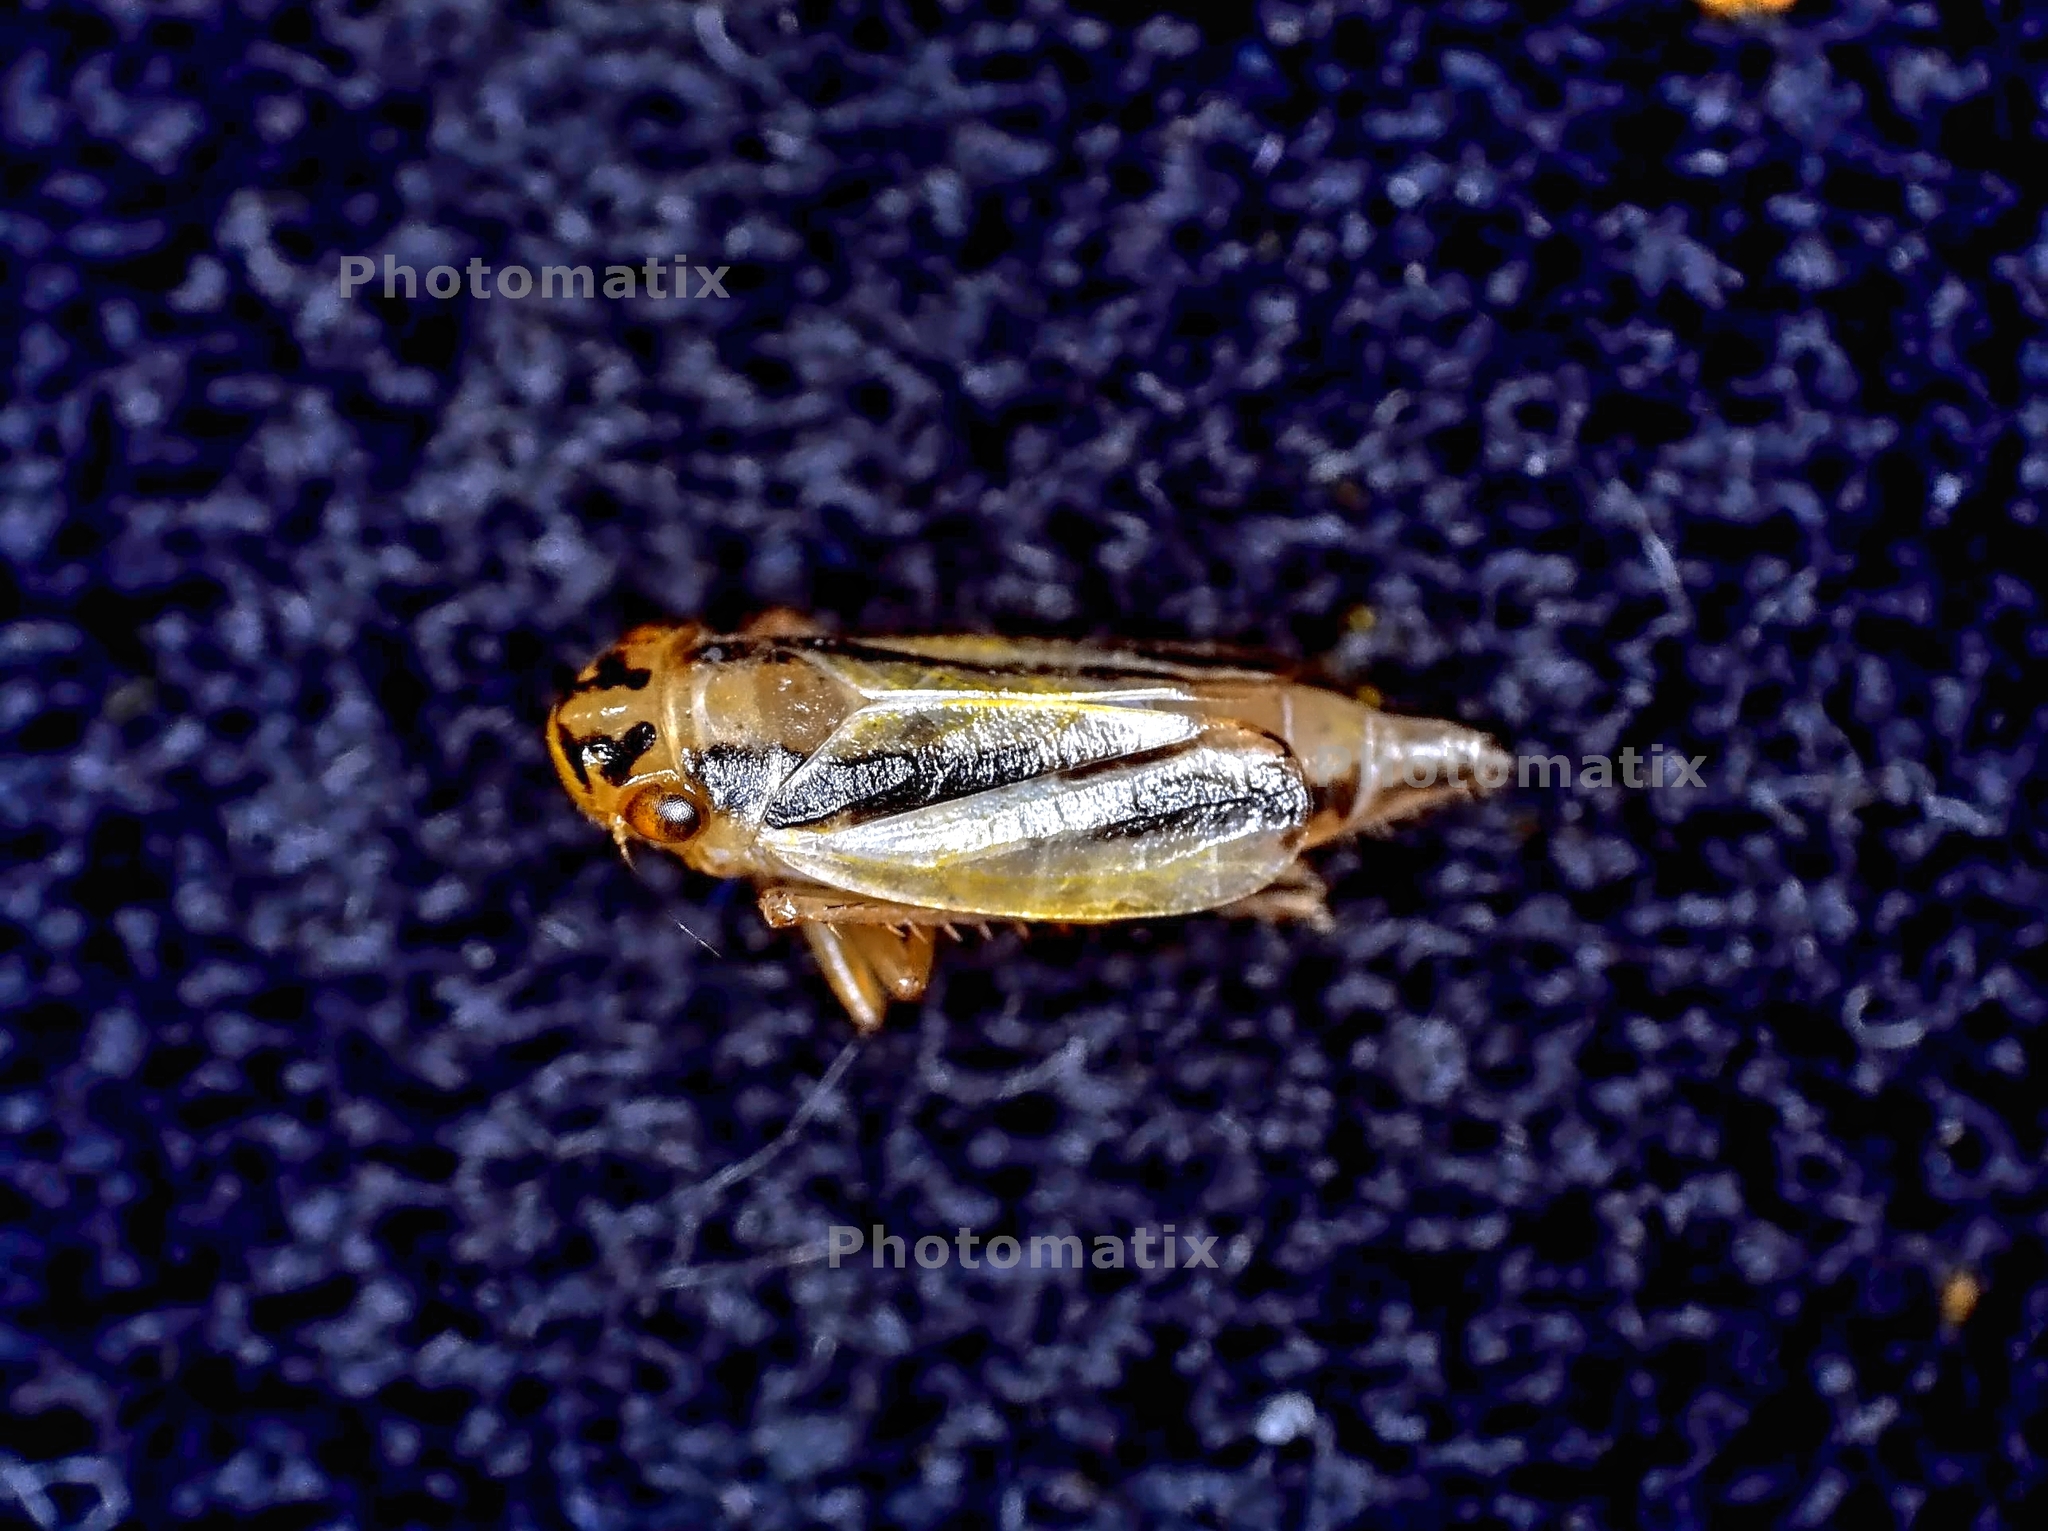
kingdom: Animalia
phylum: Arthropoda
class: Insecta
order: Hemiptera
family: Cicadellidae
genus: Evacanthus
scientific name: Evacanthus interruptus
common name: Leafhopper
